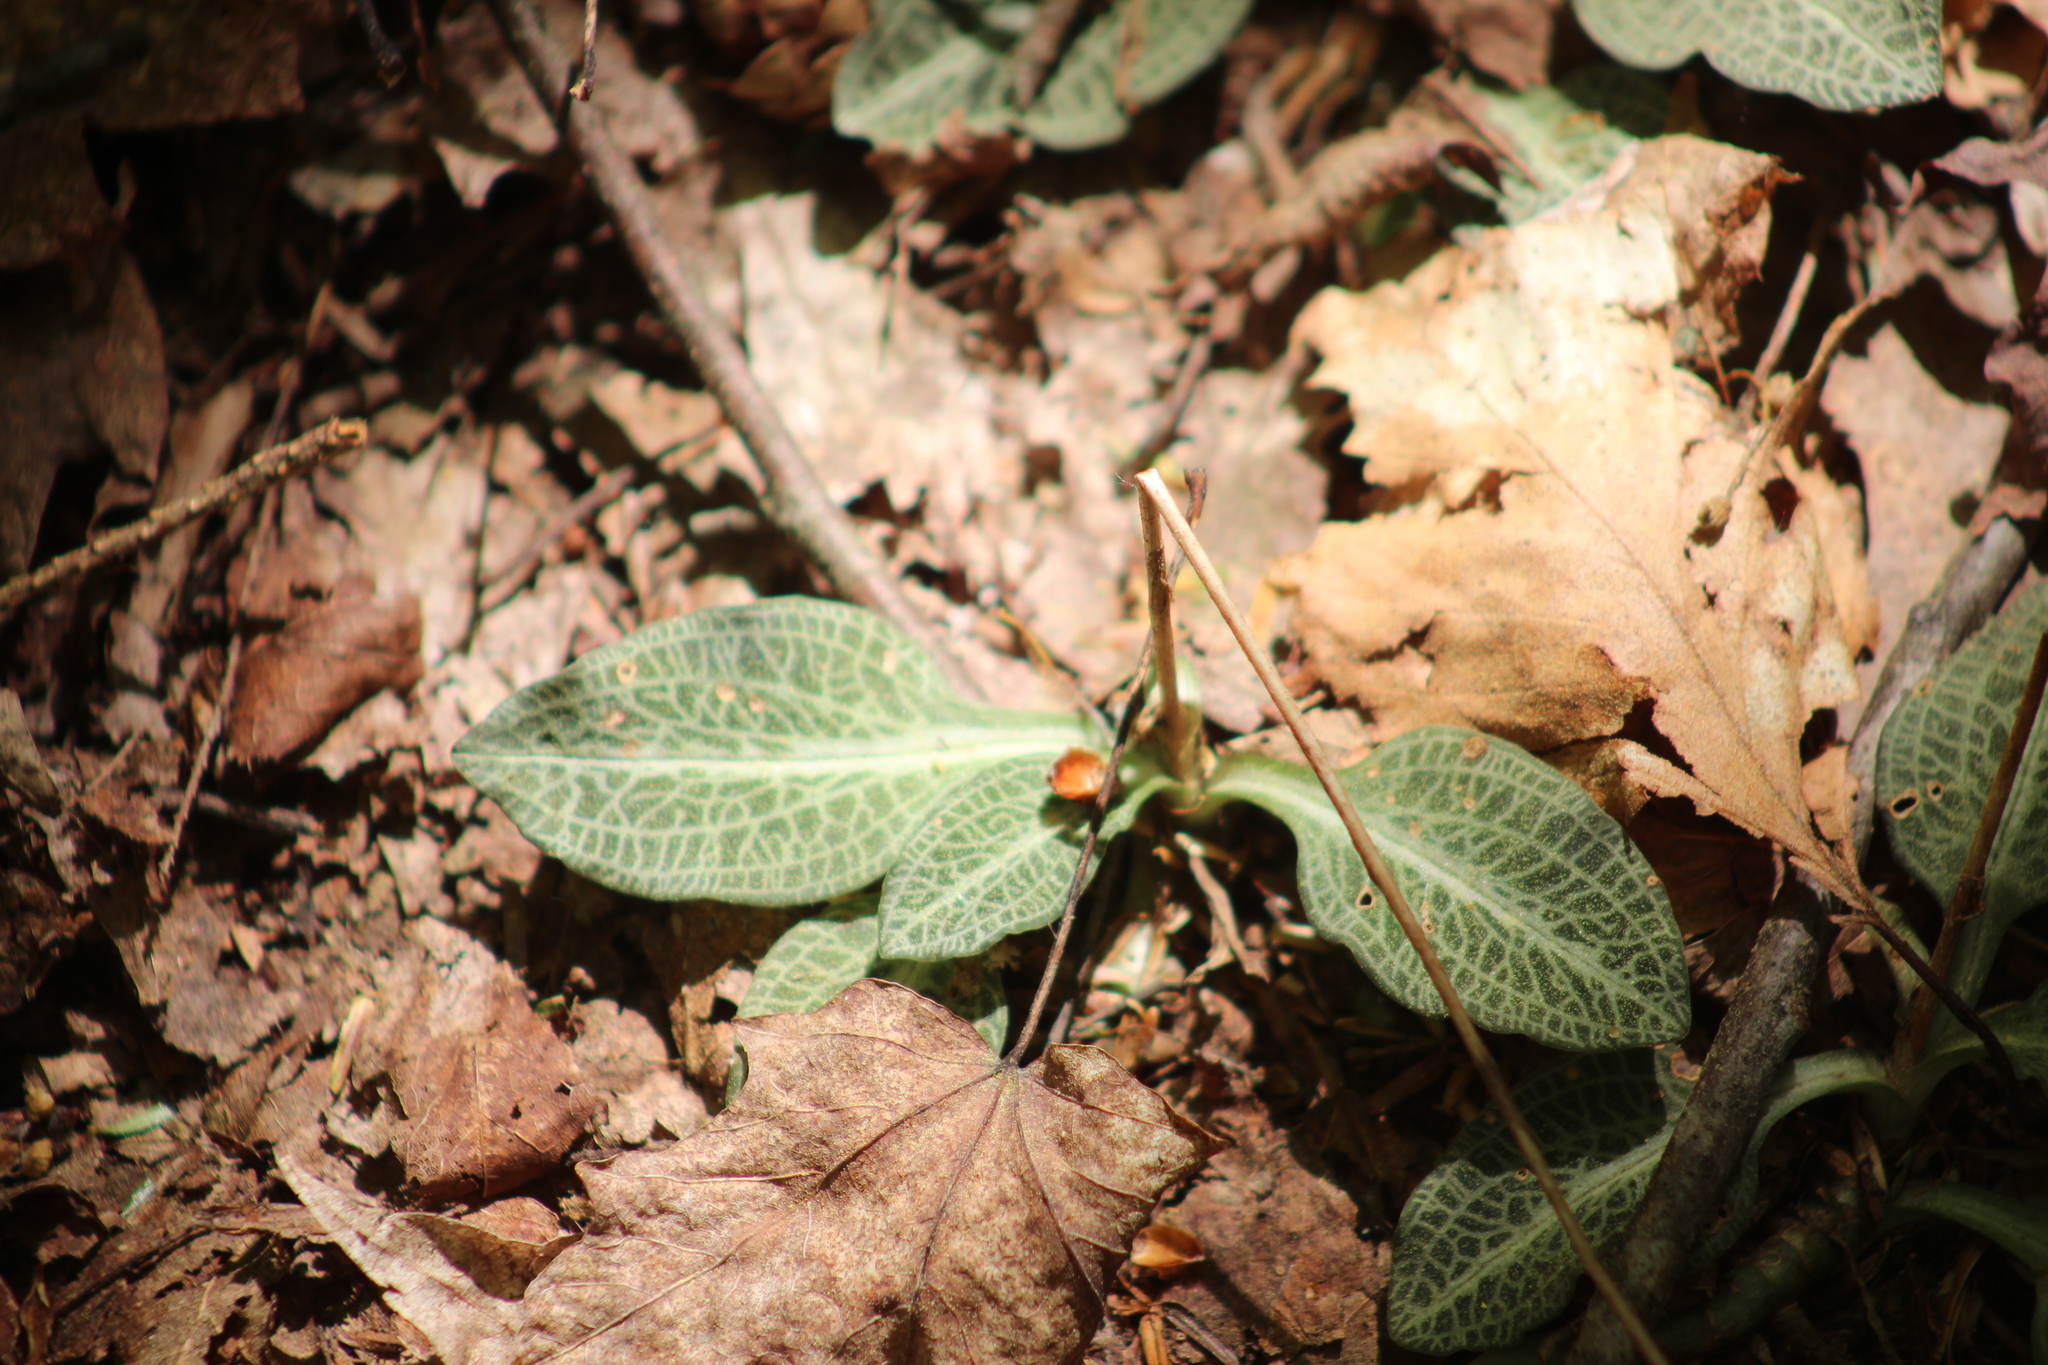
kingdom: Plantae
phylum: Tracheophyta
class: Liliopsida
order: Asparagales
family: Orchidaceae
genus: Goodyera
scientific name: Goodyera pubescens
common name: Downy rattlesnake-plantain
